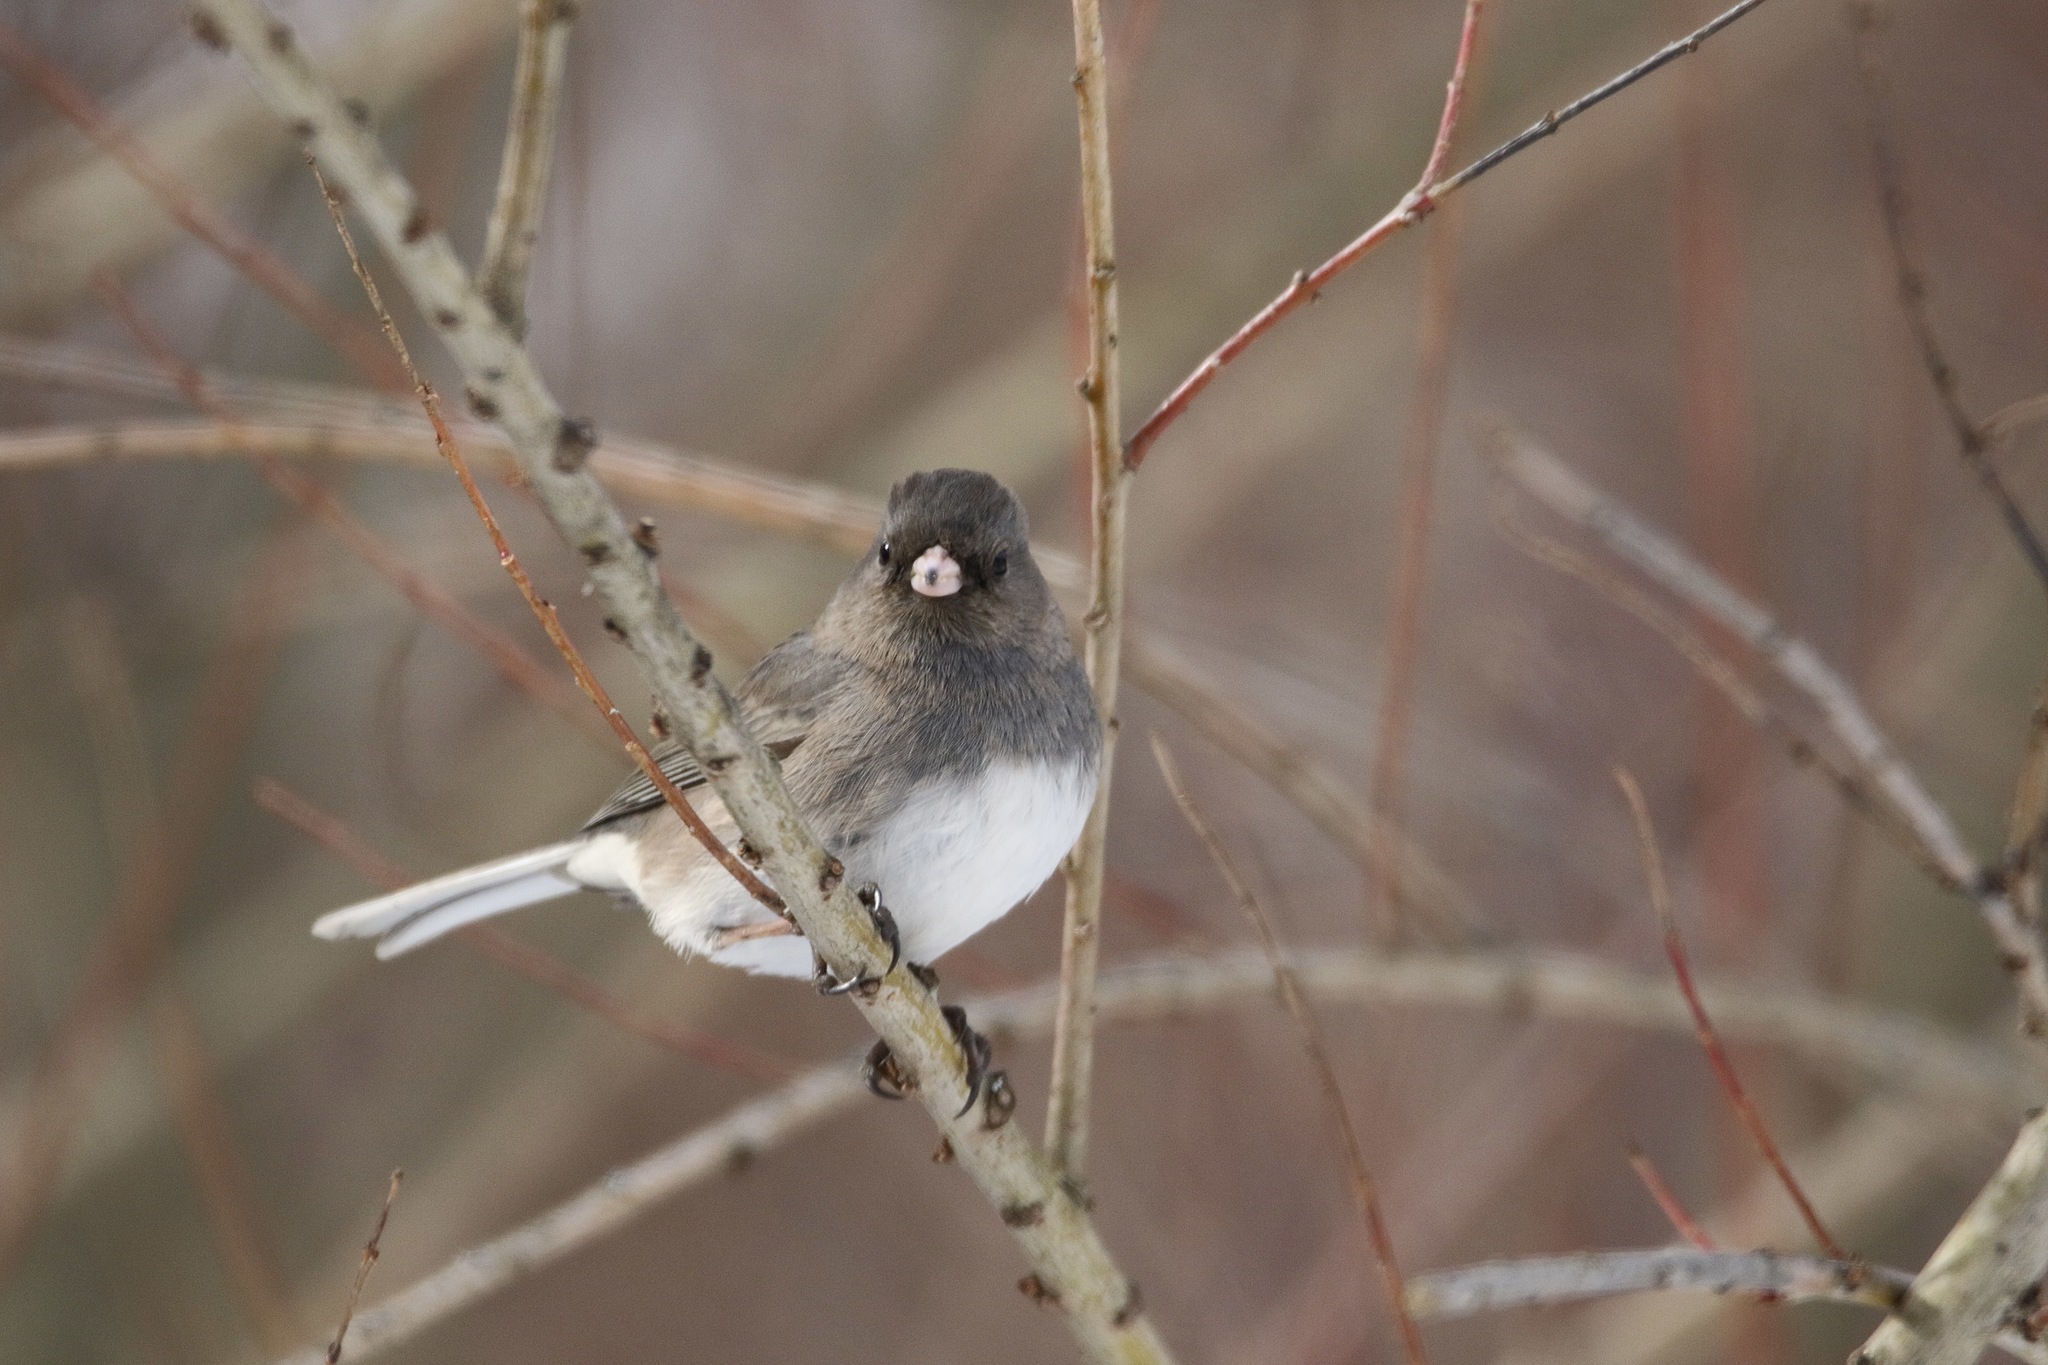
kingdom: Animalia
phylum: Chordata
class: Aves
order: Passeriformes
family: Passerellidae
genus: Junco
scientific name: Junco hyemalis
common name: Dark-eyed junco
